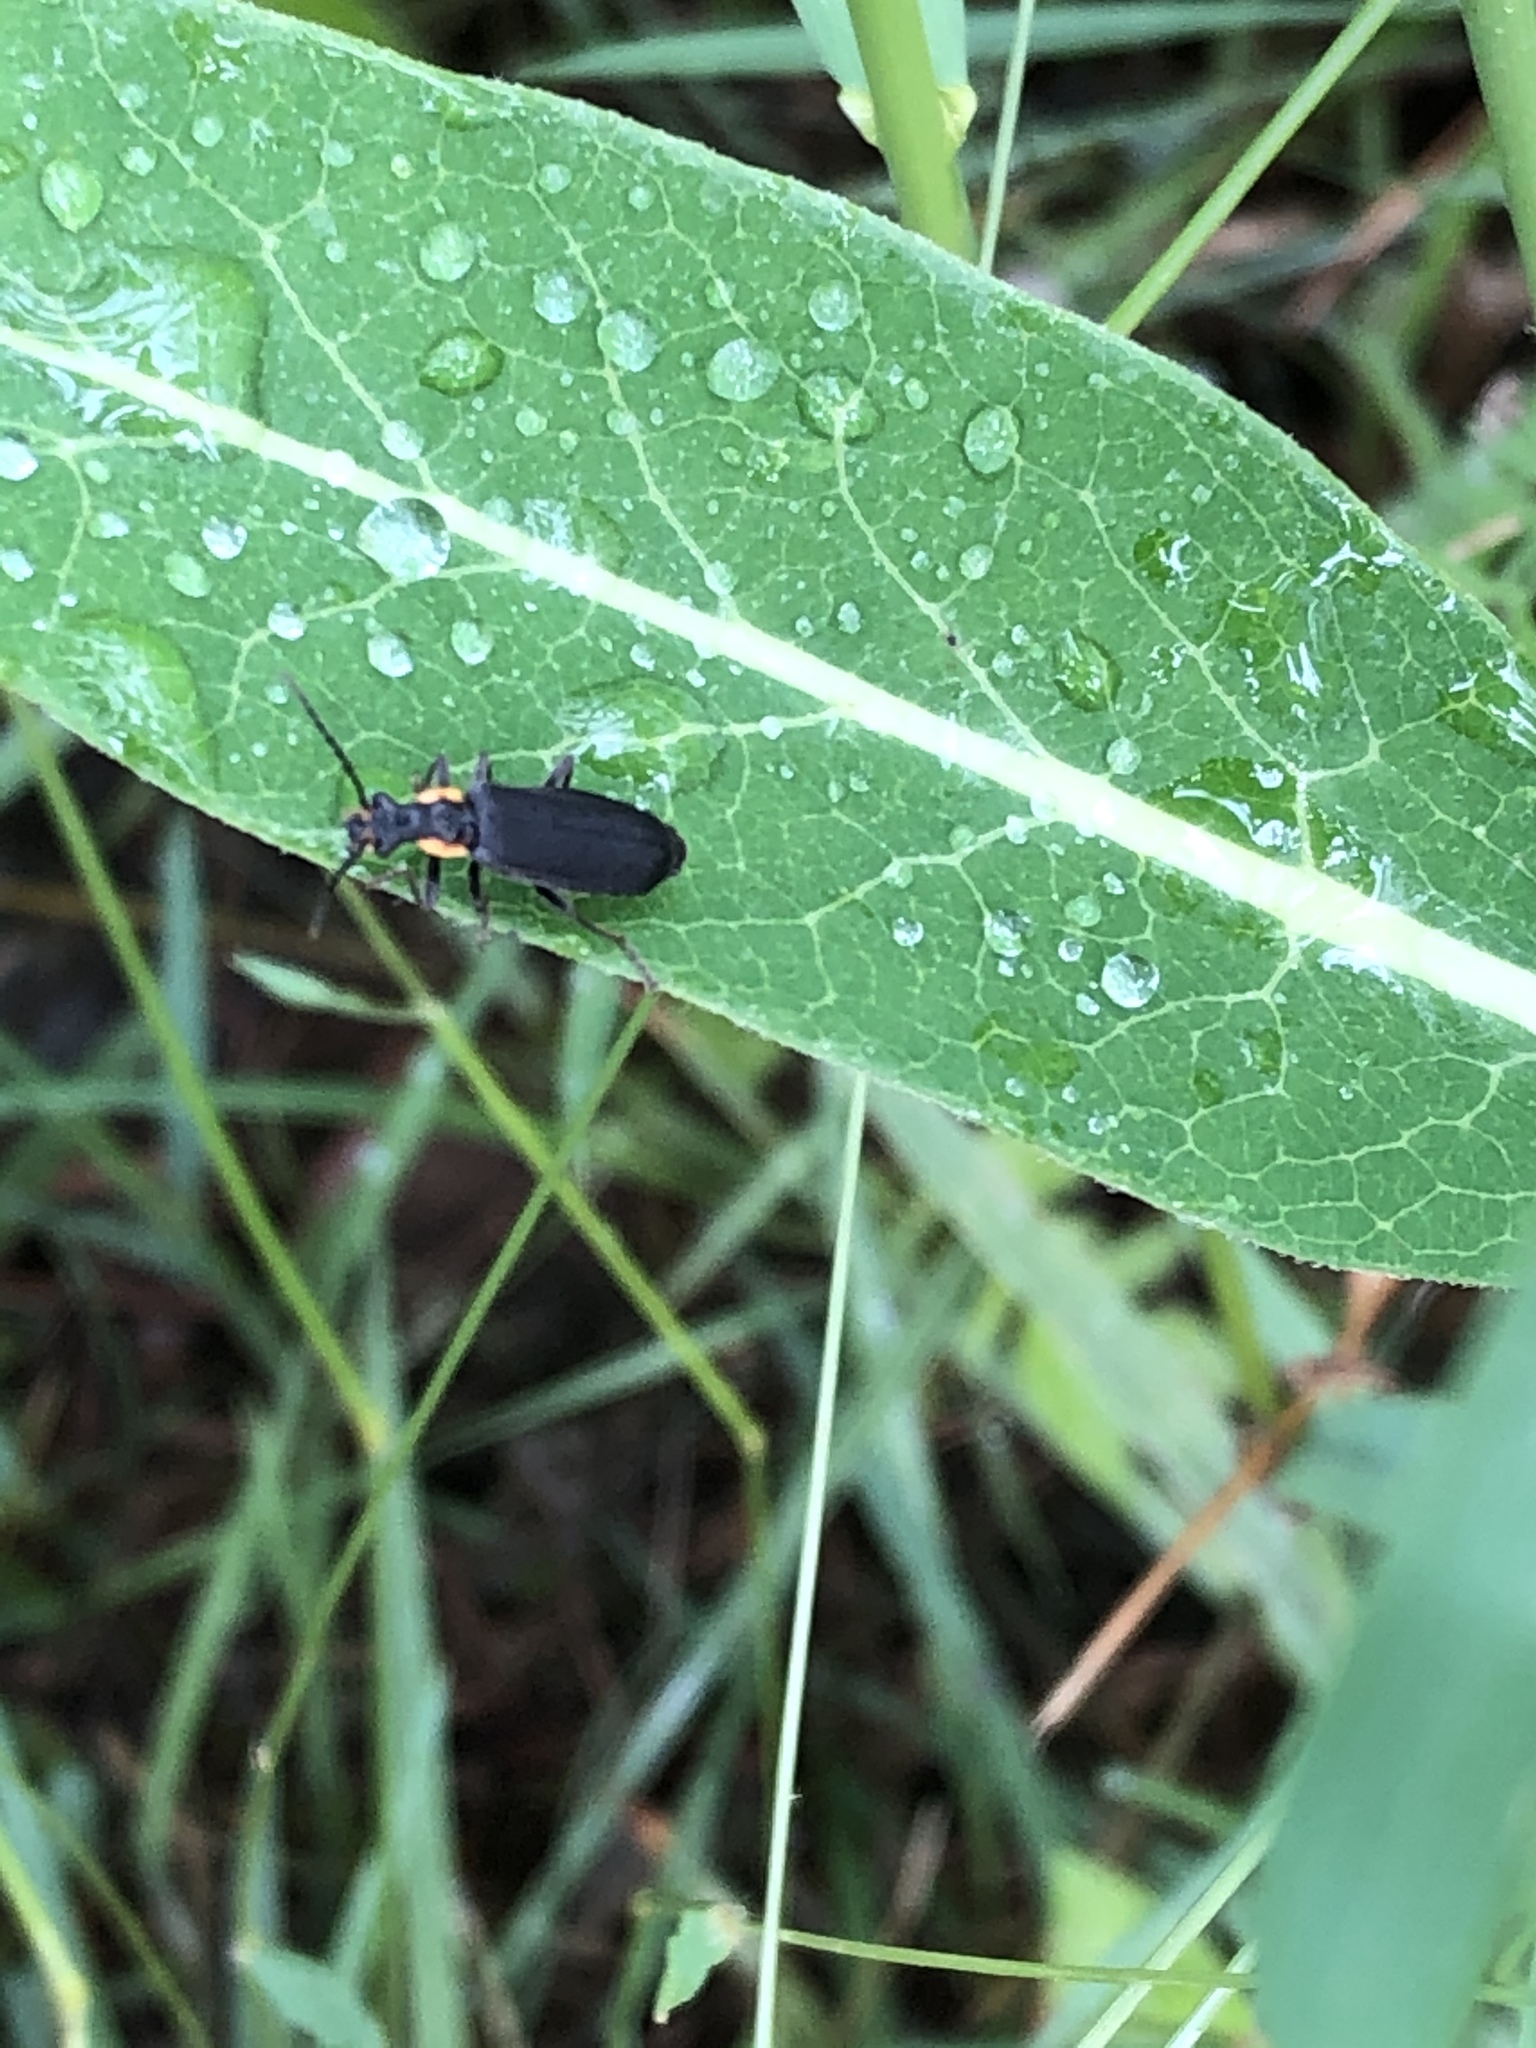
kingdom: Animalia
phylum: Arthropoda
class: Insecta
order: Coleoptera
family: Cantharidae
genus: Podabrus
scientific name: Podabrus rugosulus
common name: Wrinkled soldier beetle
